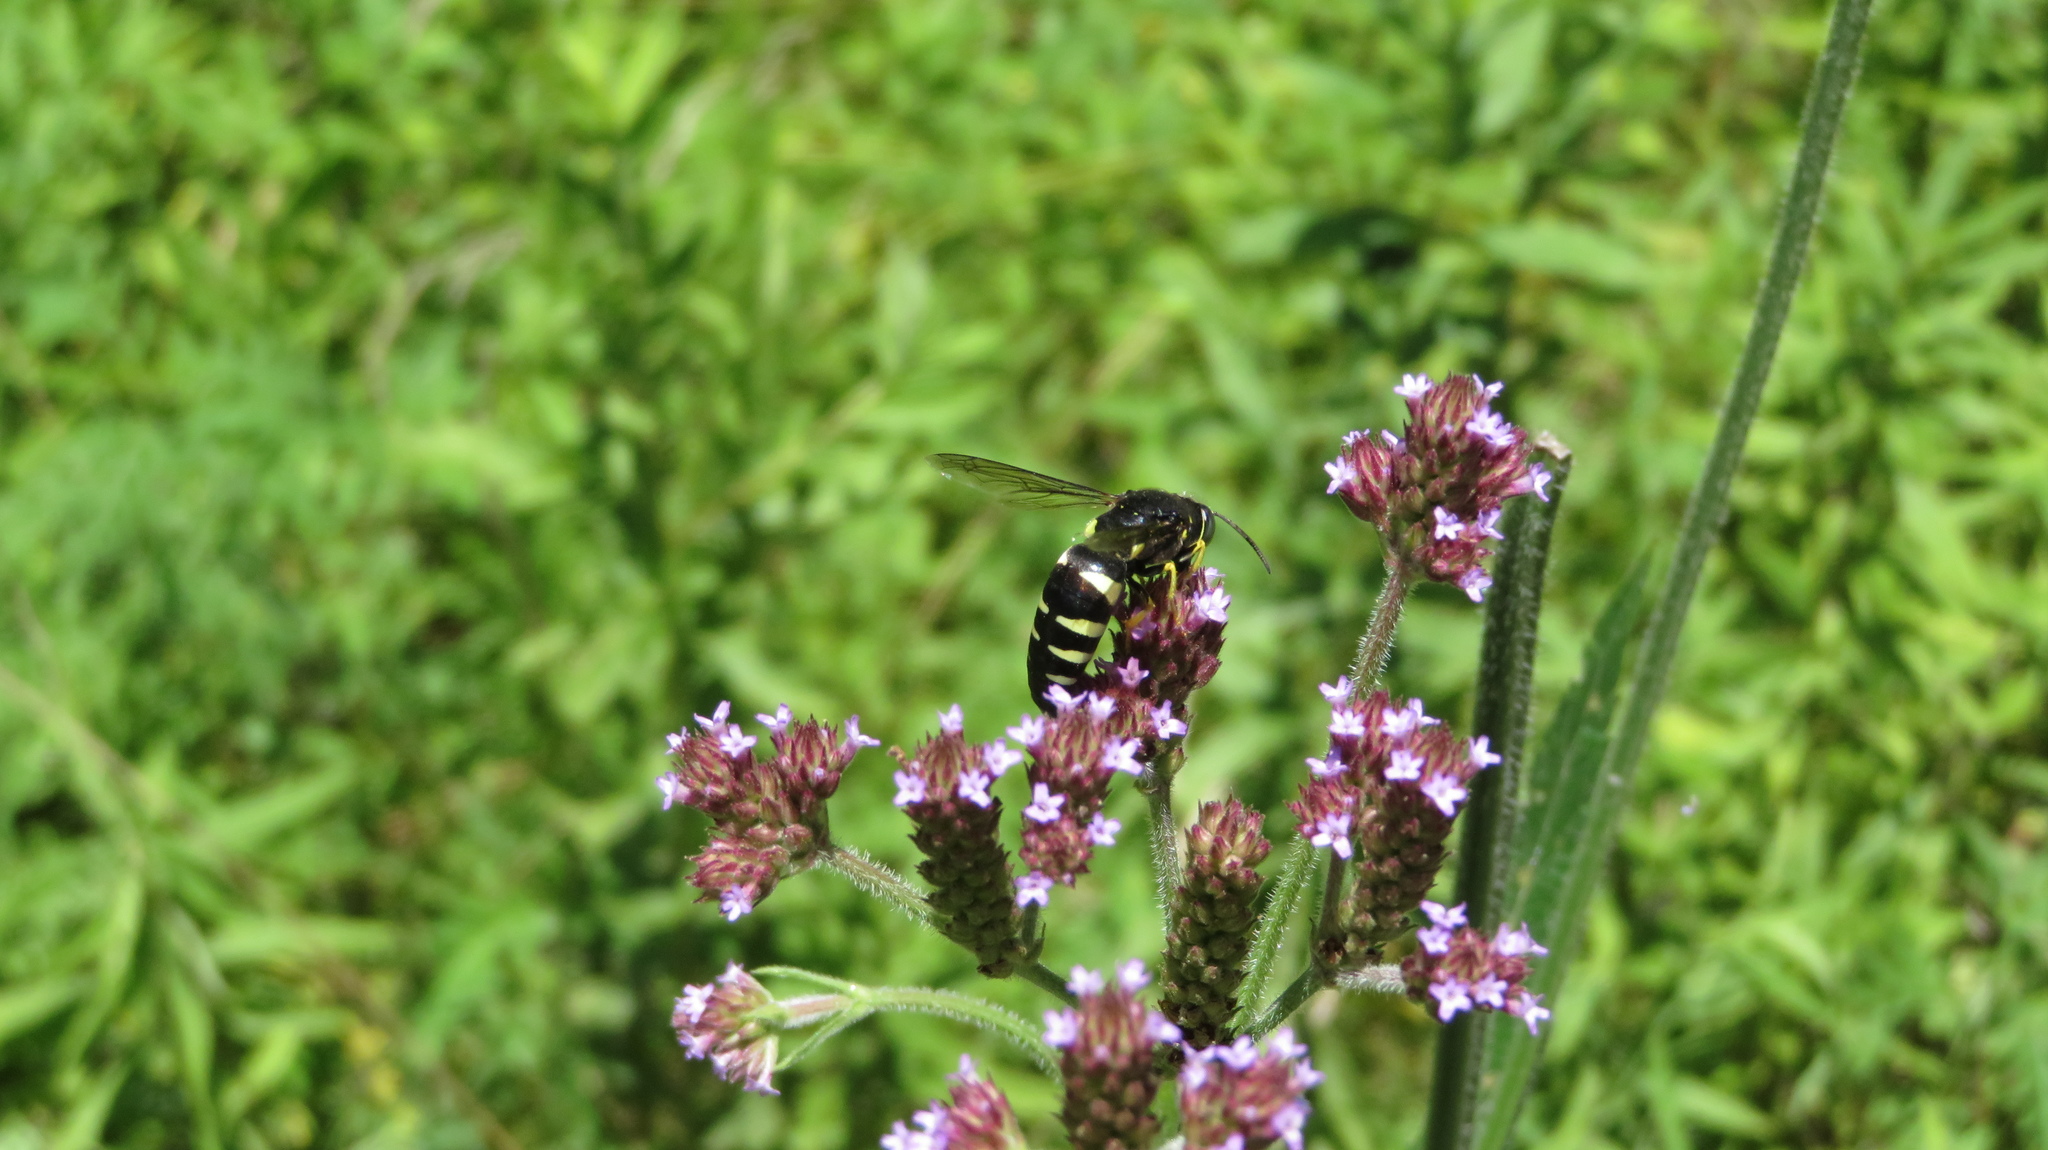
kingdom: Animalia
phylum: Arthropoda
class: Insecta
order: Hymenoptera
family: Crabronidae
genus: Bicyrtes
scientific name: Bicyrtes quadrifasciatus
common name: Four-banded stink bug hunter wasp
